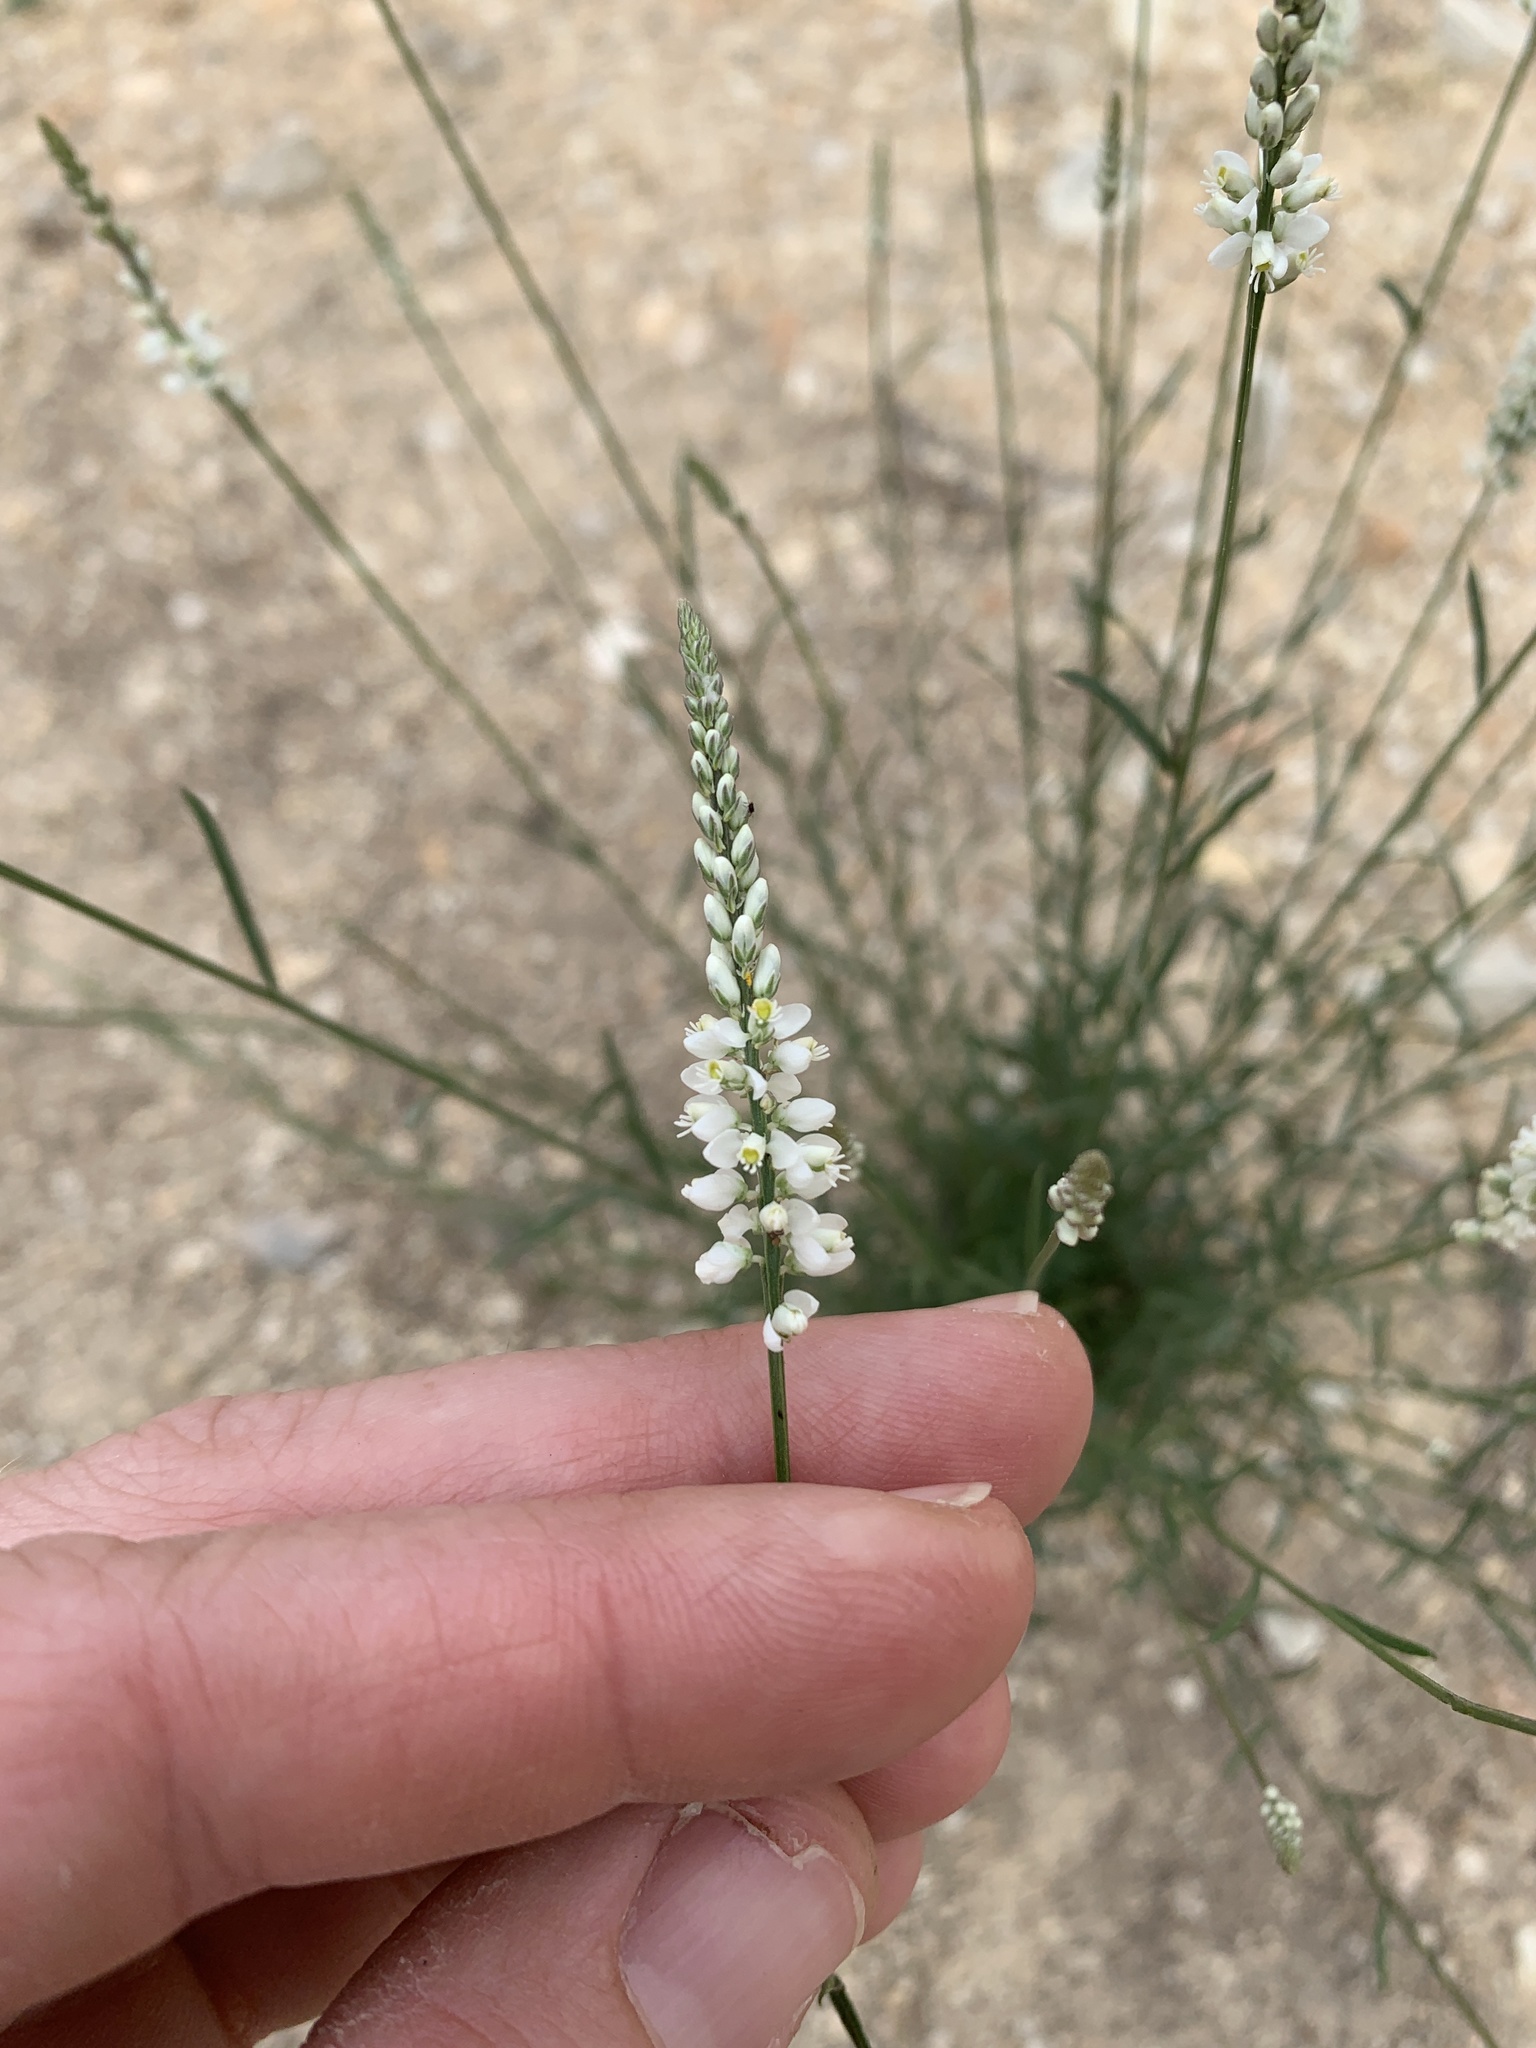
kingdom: Plantae
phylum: Tracheophyta
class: Magnoliopsida
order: Fabales
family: Polygalaceae
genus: Polygala
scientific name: Polygala alba
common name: White milkwort
